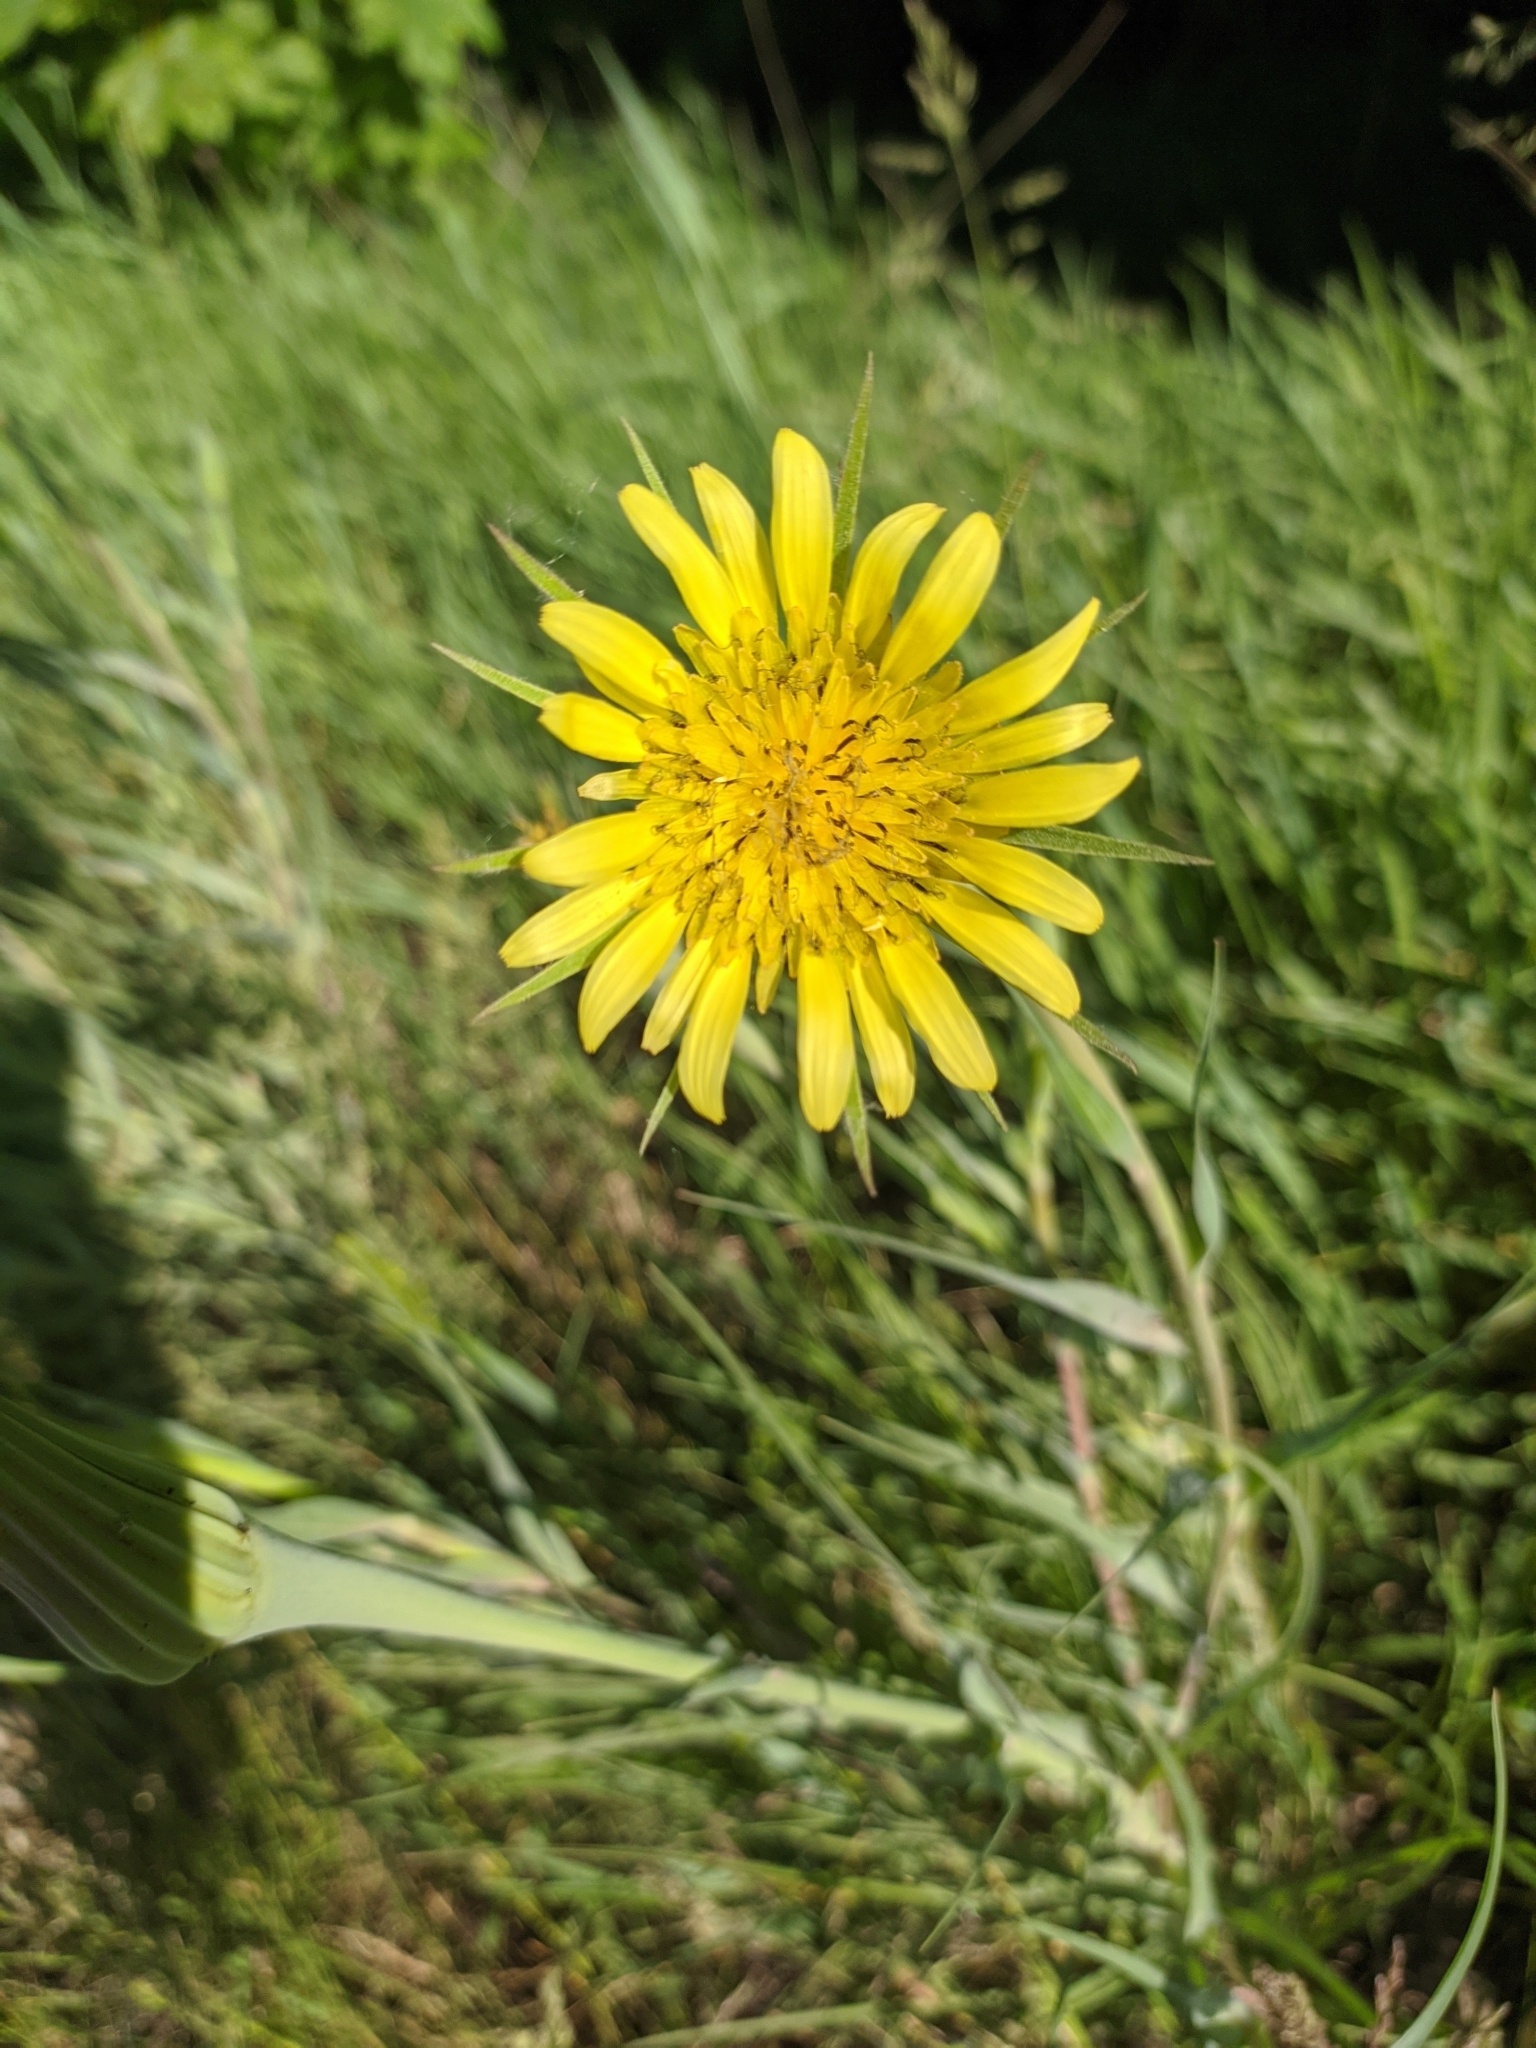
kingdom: Plantae
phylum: Tracheophyta
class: Magnoliopsida
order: Asterales
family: Asteraceae
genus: Tragopogon
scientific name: Tragopogon dubius
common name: Yellow salsify
